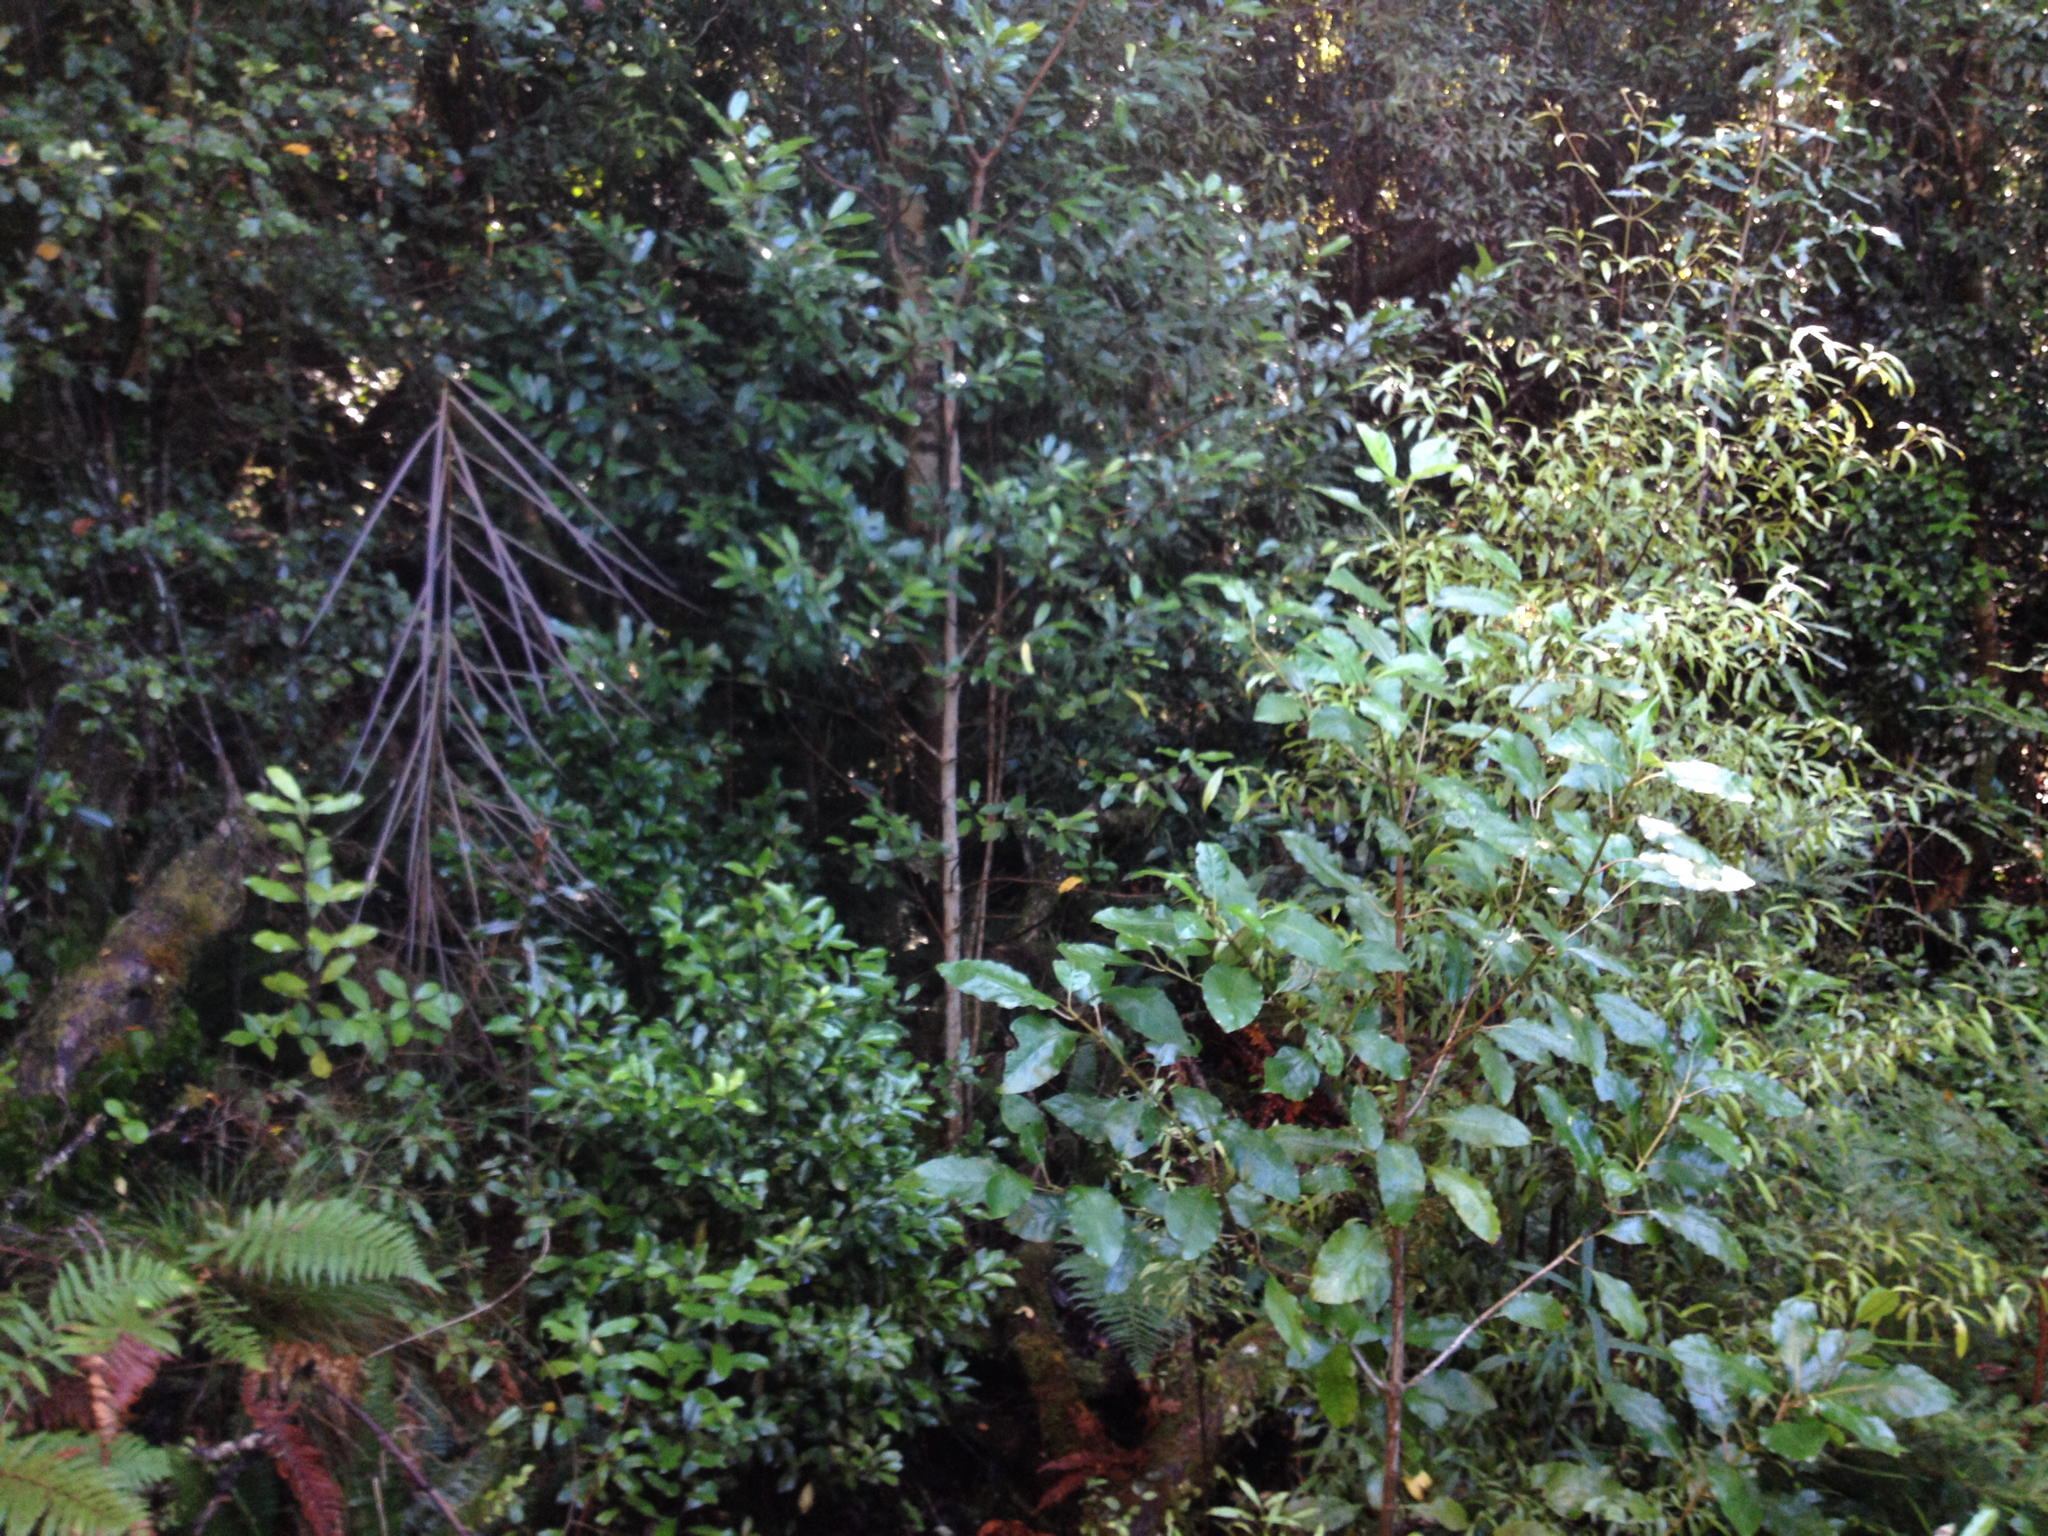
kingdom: Plantae
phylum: Tracheophyta
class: Magnoliopsida
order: Apiales
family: Araliaceae
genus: Raukaua
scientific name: Raukaua edgerleyi
